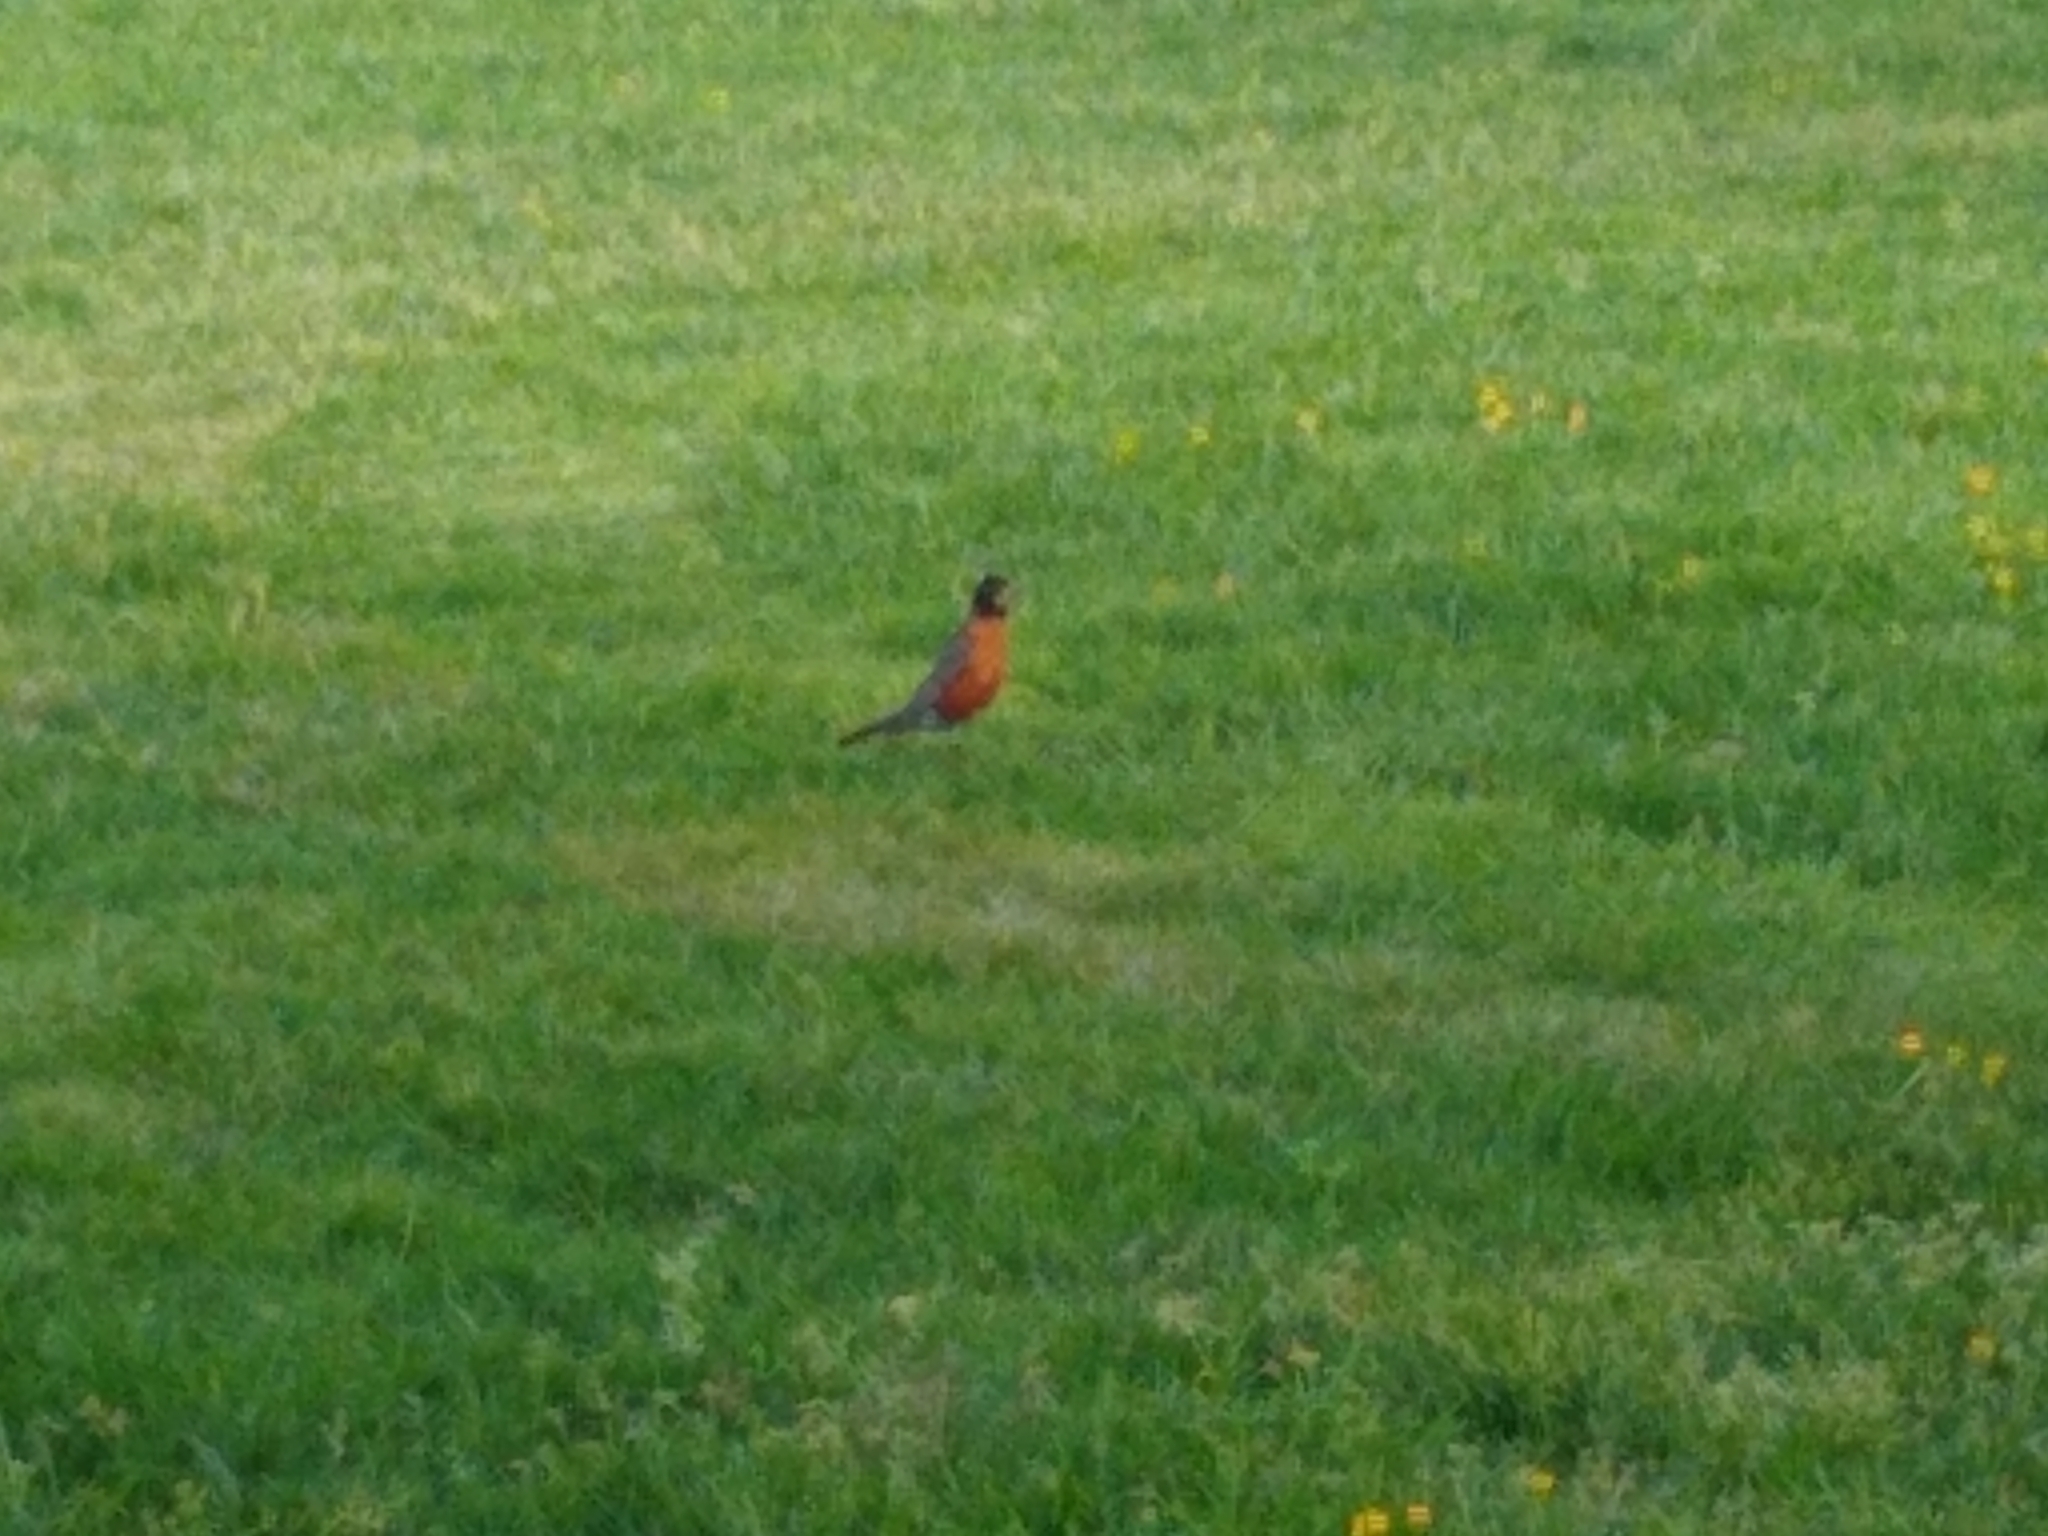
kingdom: Animalia
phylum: Chordata
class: Aves
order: Passeriformes
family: Turdidae
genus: Turdus
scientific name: Turdus migratorius
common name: American robin
